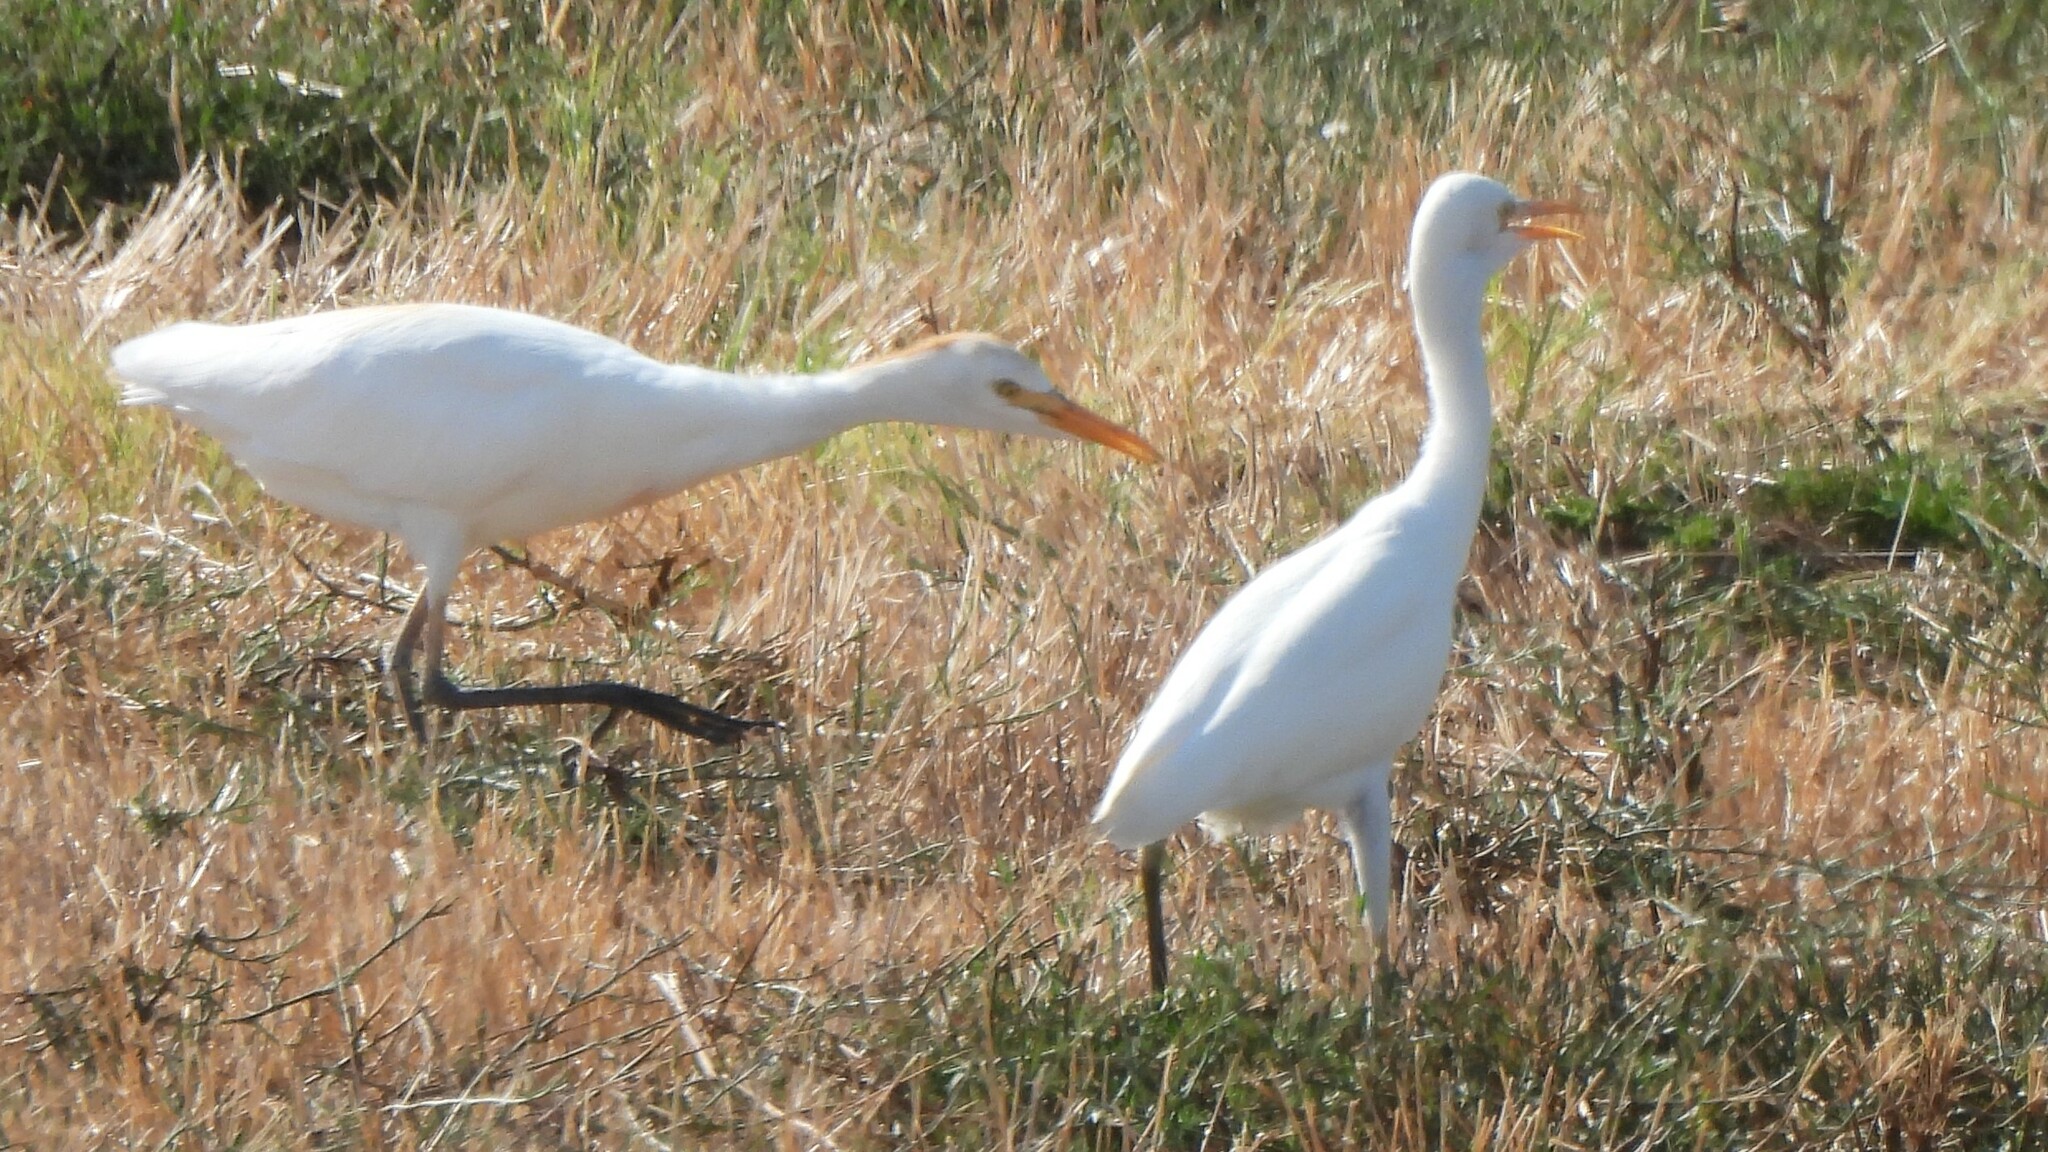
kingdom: Animalia
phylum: Chordata
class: Aves
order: Pelecaniformes
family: Ardeidae
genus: Bubulcus
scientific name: Bubulcus ibis
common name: Cattle egret
